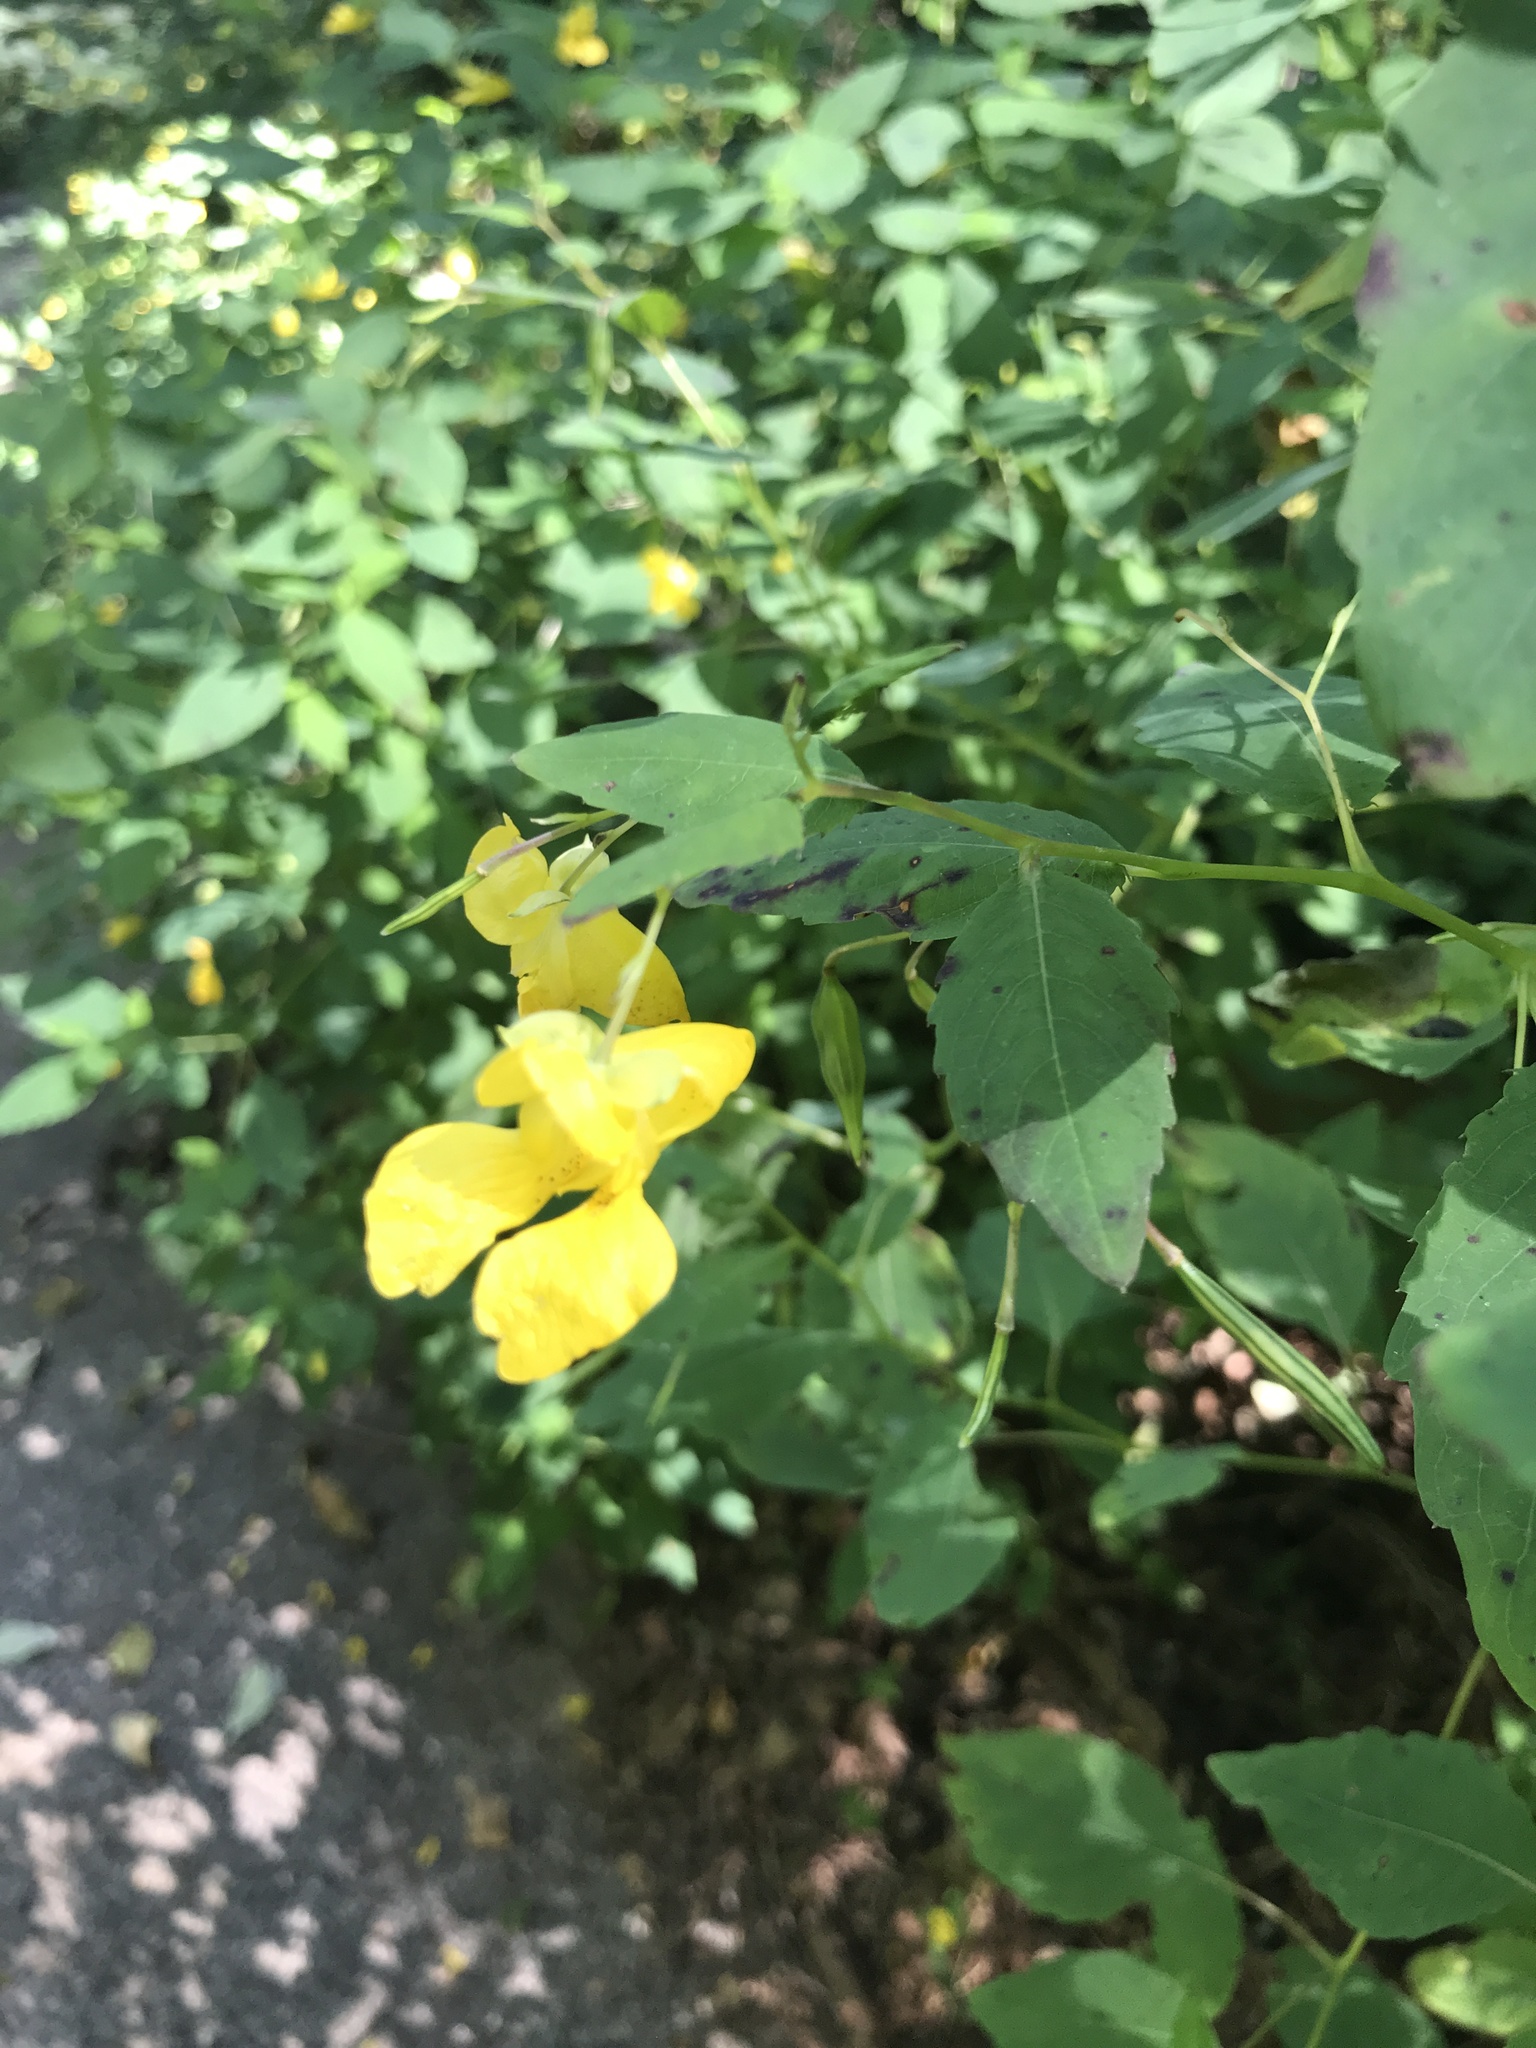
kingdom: Plantae
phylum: Tracheophyta
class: Magnoliopsida
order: Ericales
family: Balsaminaceae
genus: Impatiens
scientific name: Impatiens pallida
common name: Pale snapweed
